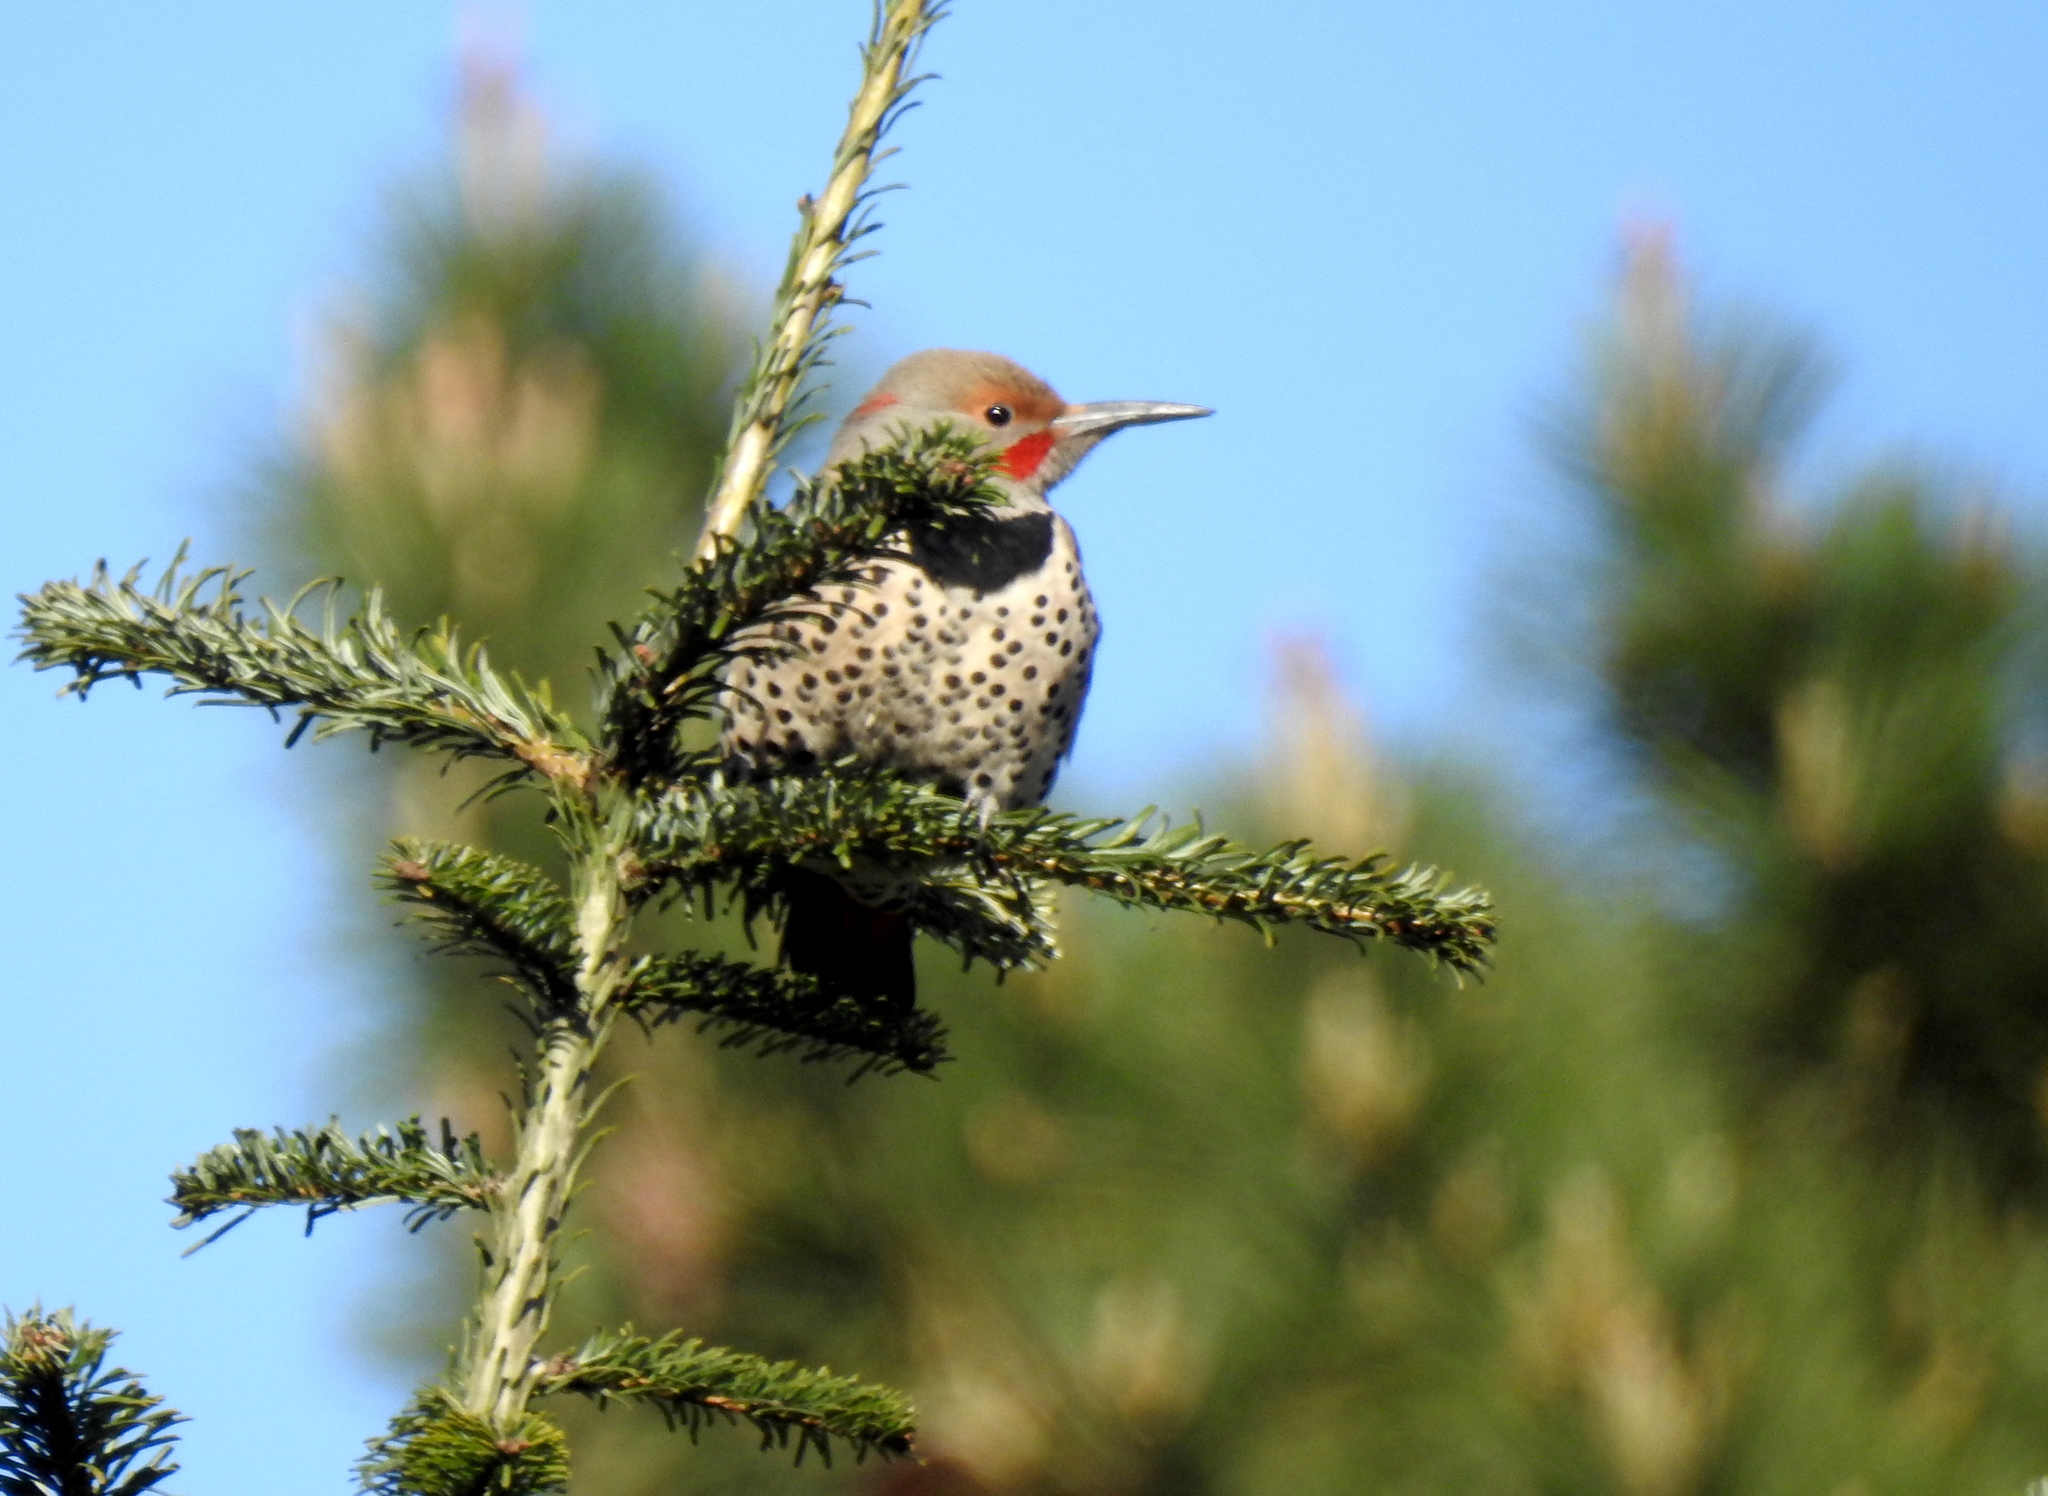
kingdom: Animalia
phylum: Chordata
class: Aves
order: Piciformes
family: Picidae
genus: Colaptes
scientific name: Colaptes
